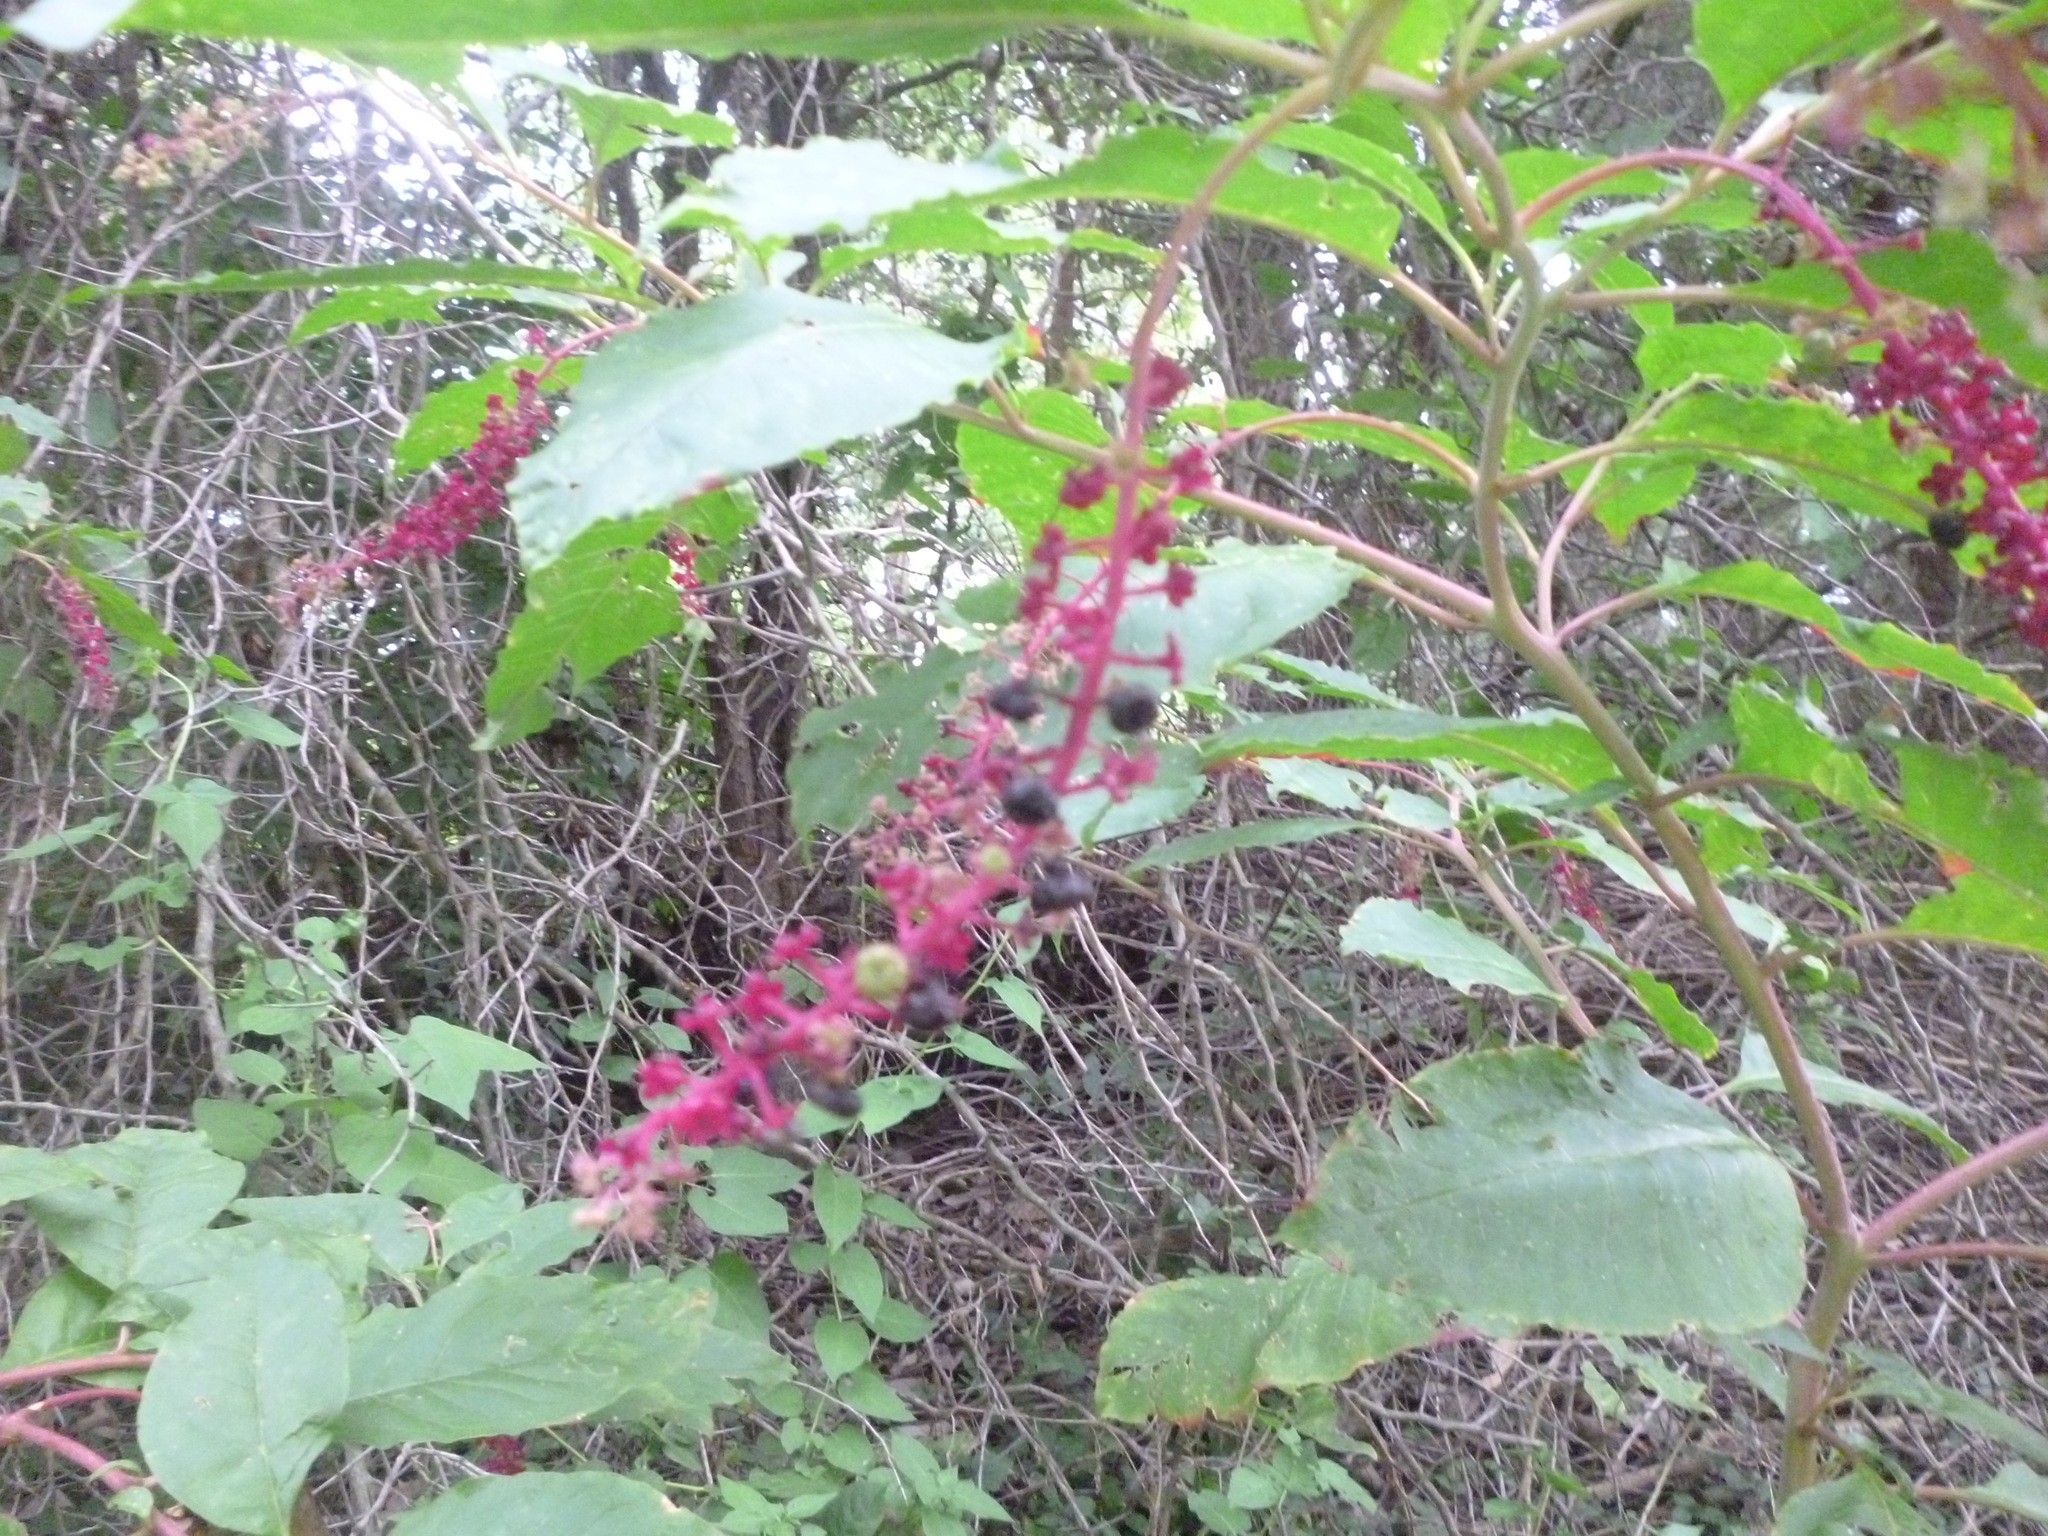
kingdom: Plantae
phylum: Tracheophyta
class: Magnoliopsida
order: Caryophyllales
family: Phytolaccaceae
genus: Phytolacca
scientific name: Phytolacca americana
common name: American pokeweed
